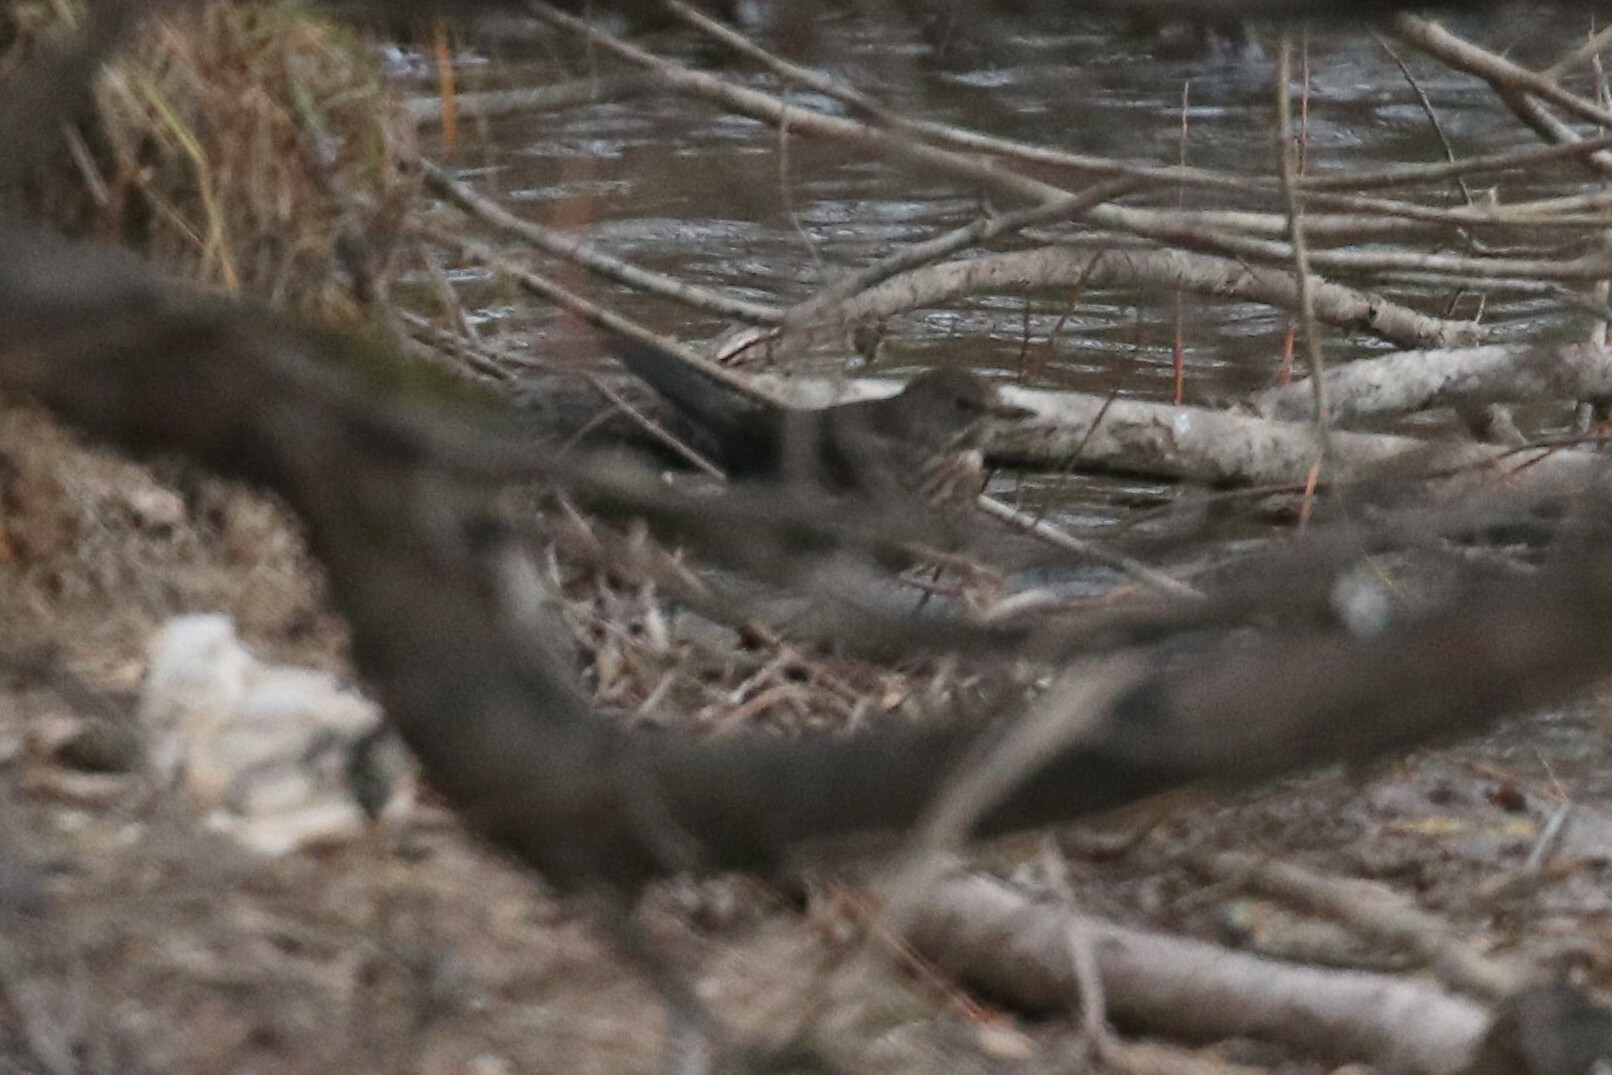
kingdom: Animalia
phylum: Chordata
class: Aves
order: Passeriformes
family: Turdidae
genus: Turdus
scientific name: Turdus merula
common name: Common blackbird
